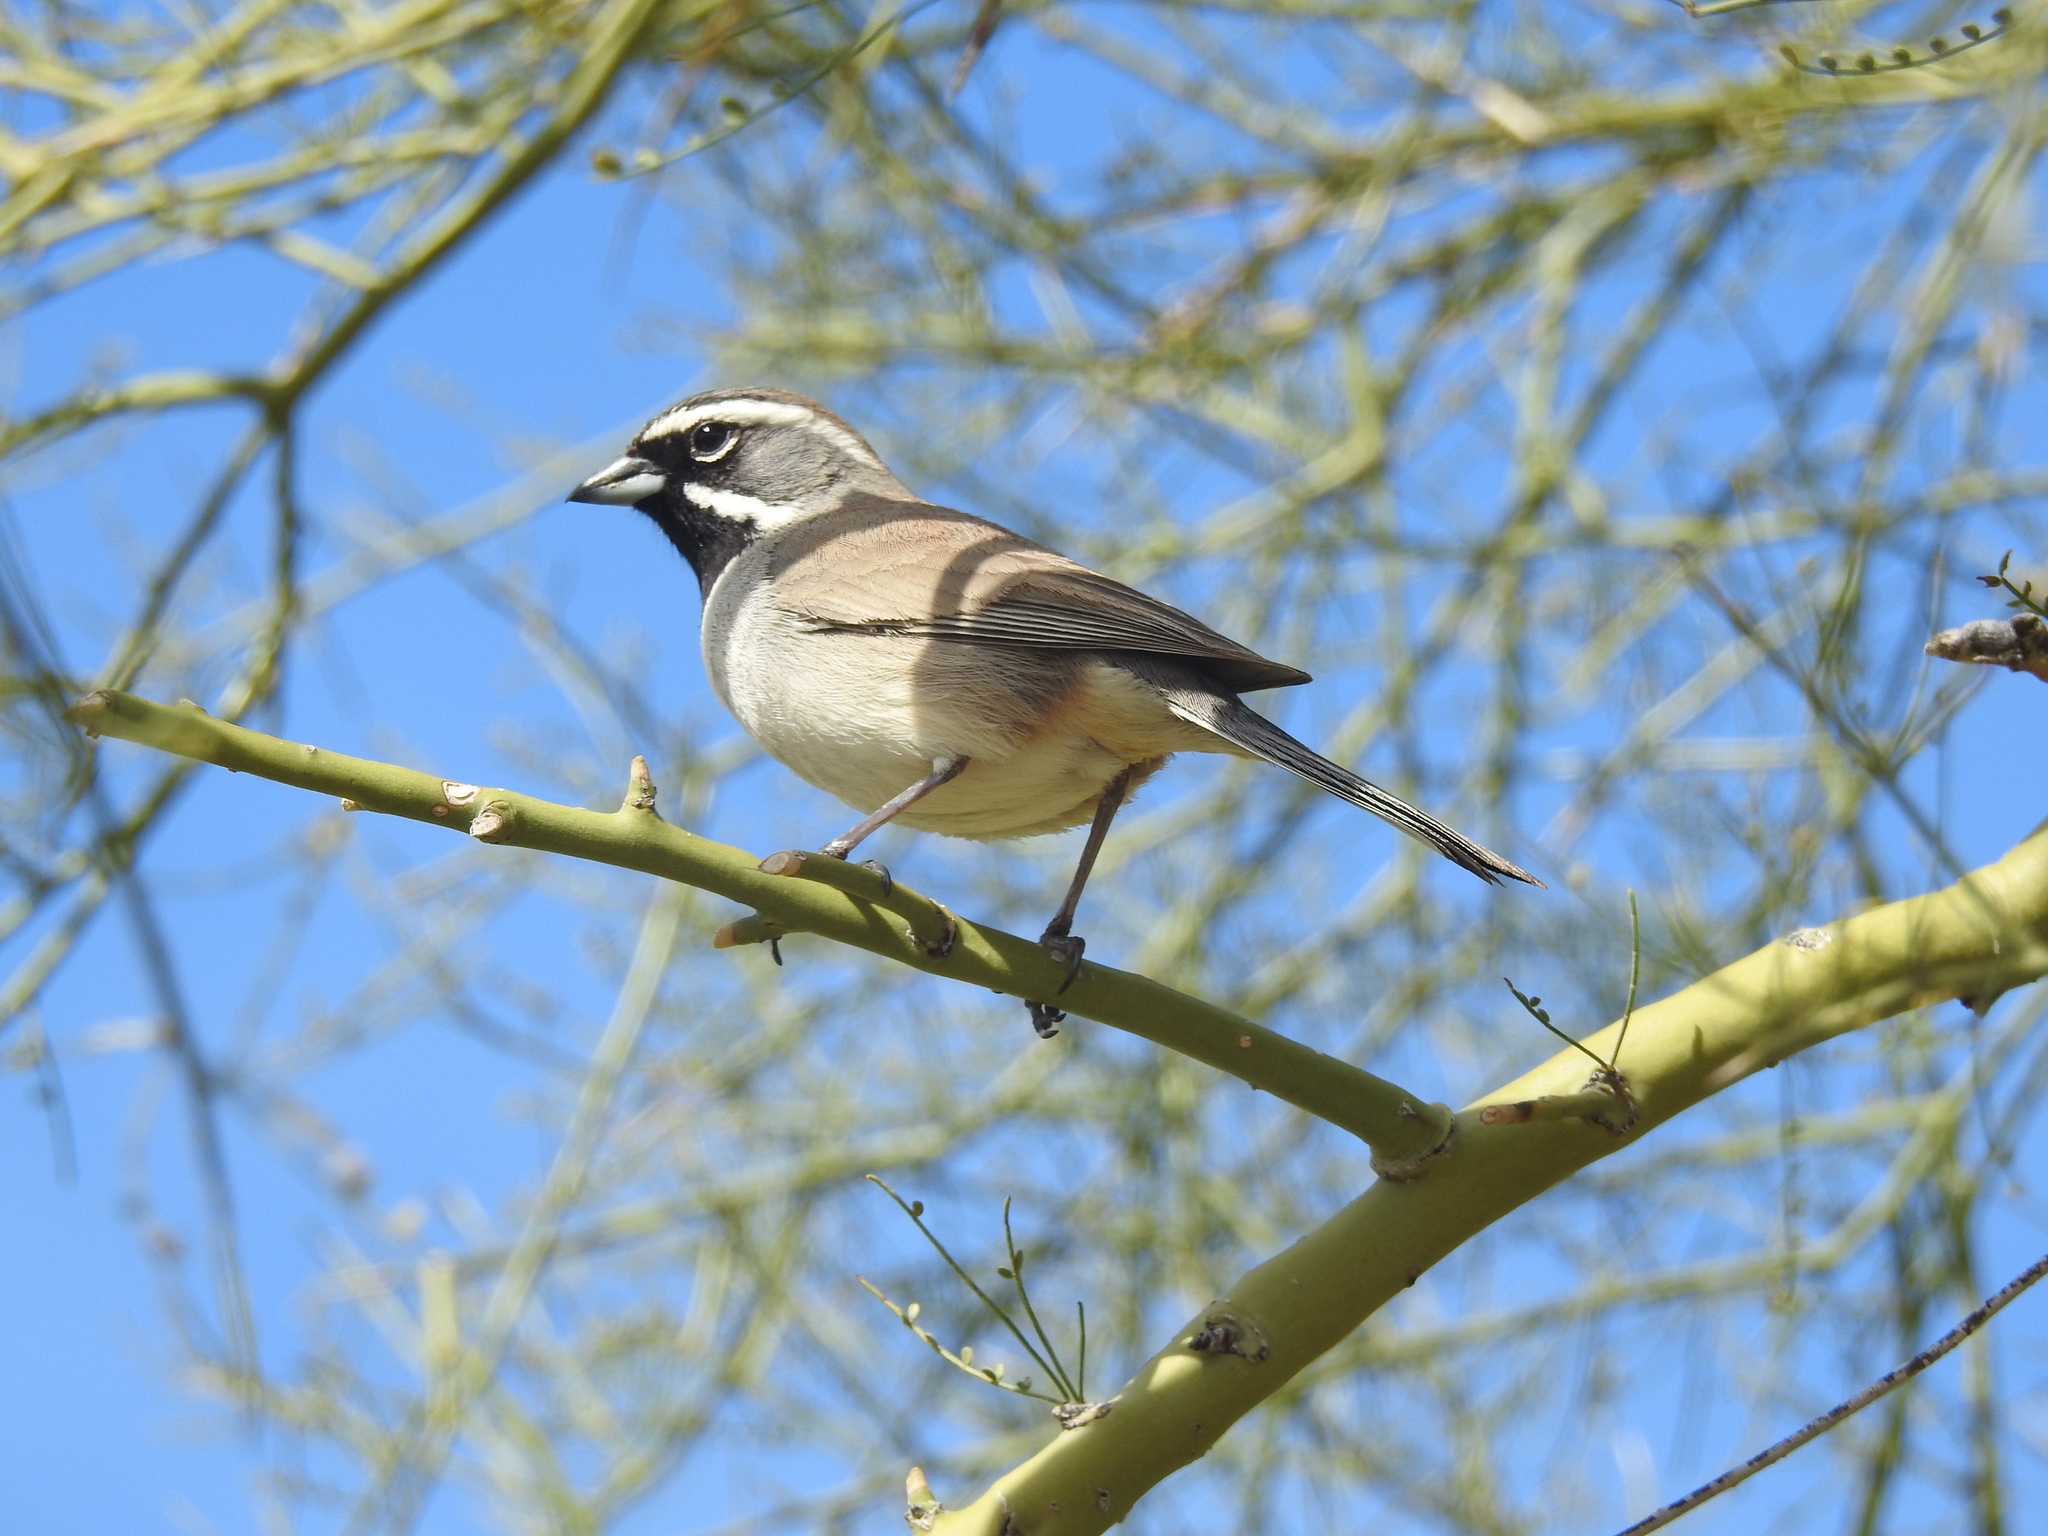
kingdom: Animalia
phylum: Chordata
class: Aves
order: Passeriformes
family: Passerellidae
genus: Amphispiza
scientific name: Amphispiza bilineata
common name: Black-throated sparrow
